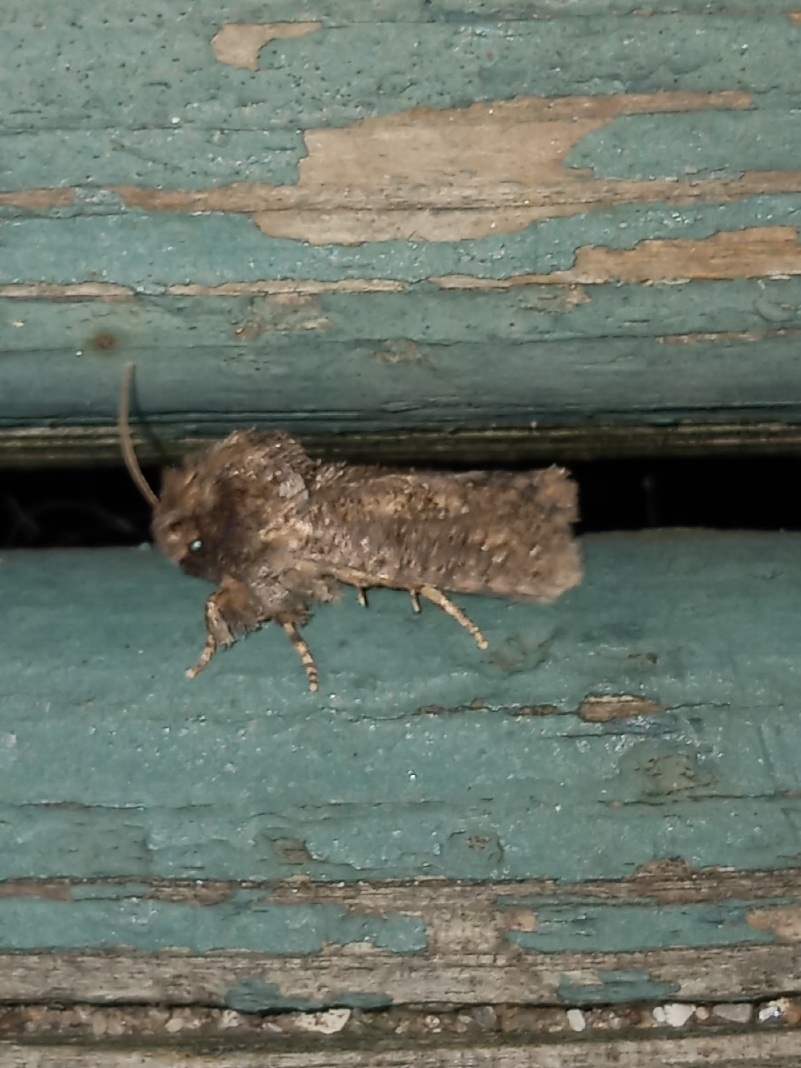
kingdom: Animalia
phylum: Arthropoda
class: Insecta
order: Lepidoptera
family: Tineidae
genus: Acrolophus
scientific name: Acrolophus arcanella
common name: Arcane grass tubeworm moth
